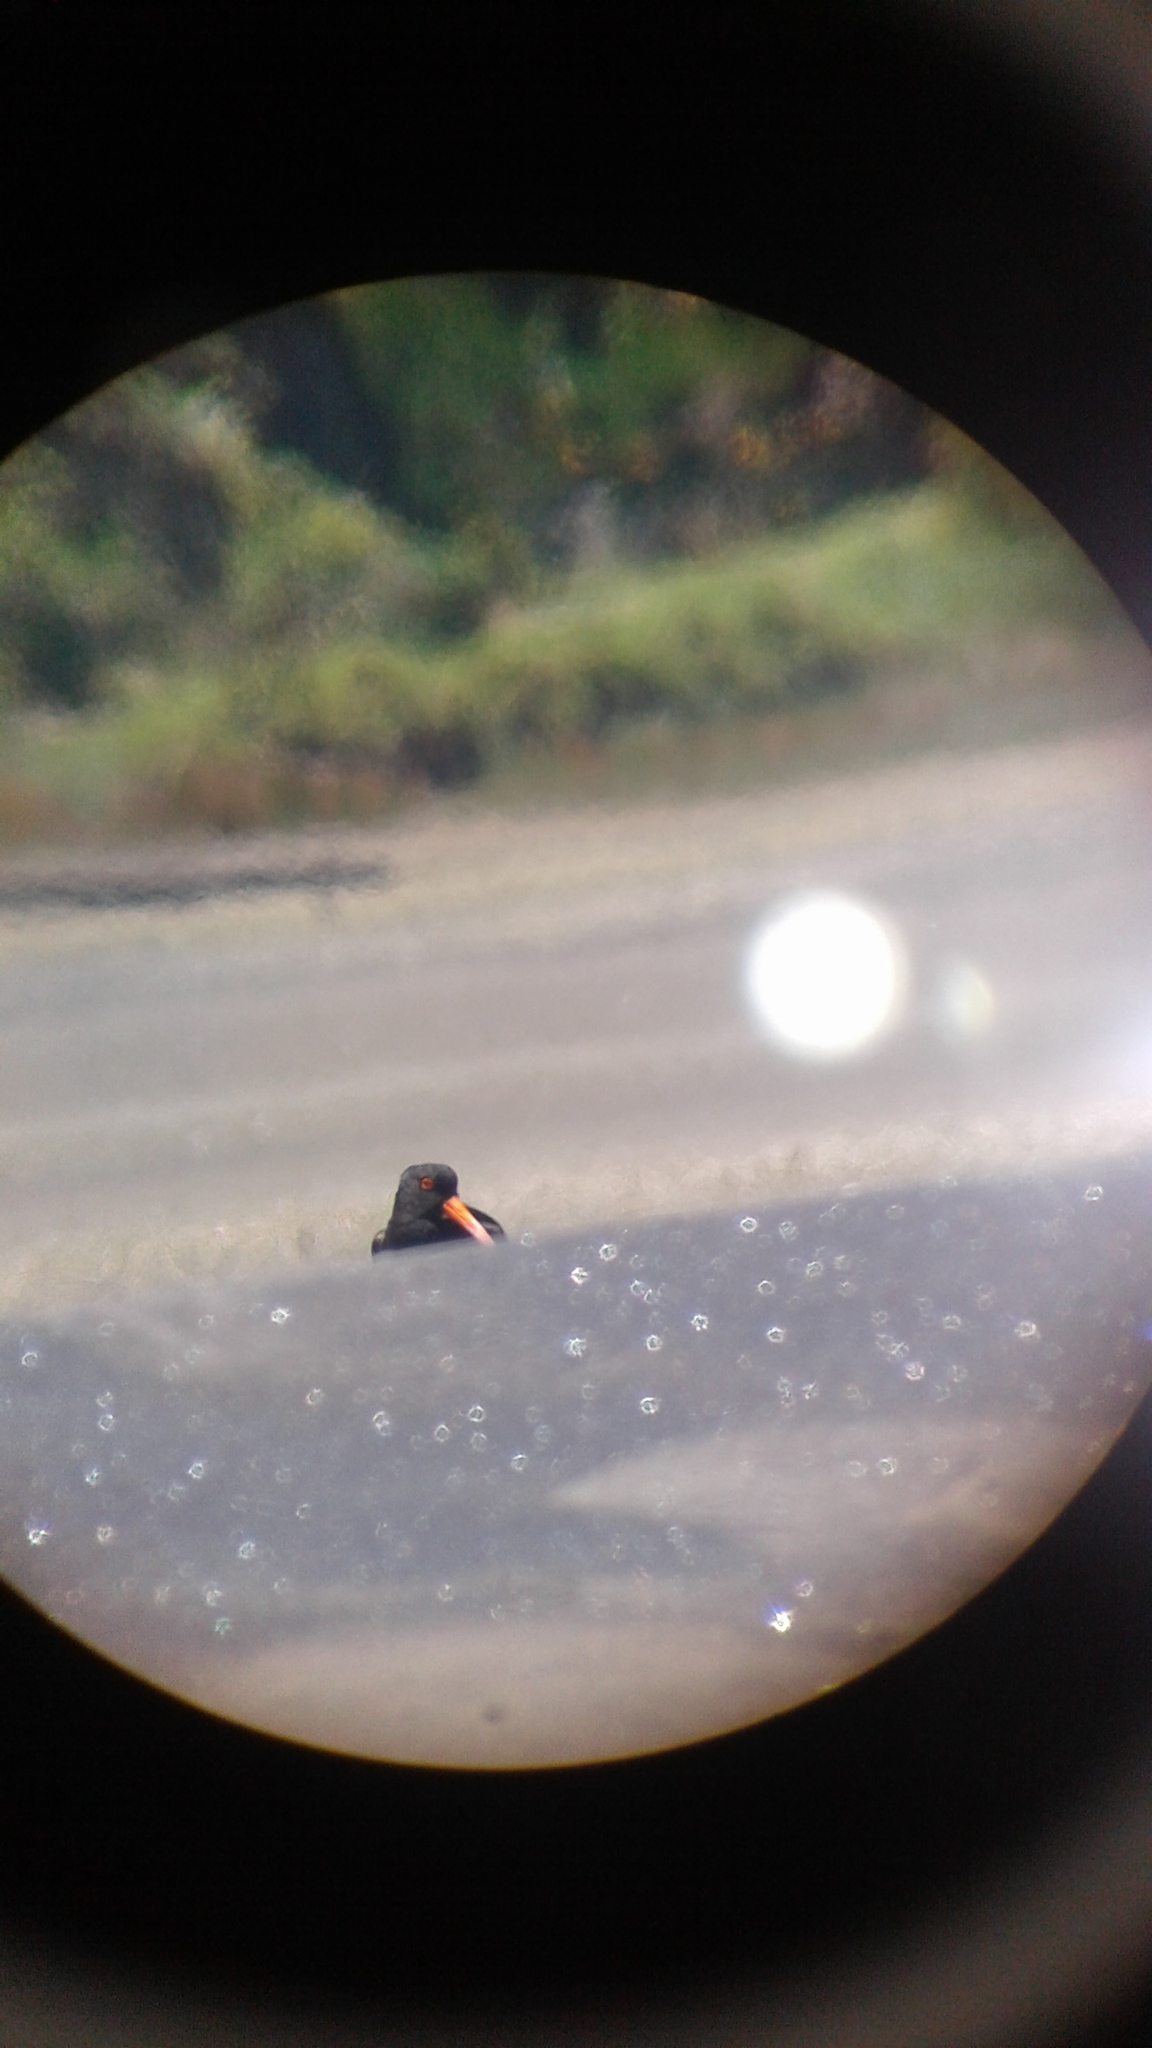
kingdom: Animalia
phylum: Chordata
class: Aves
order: Charadriiformes
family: Haematopodidae
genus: Haematopus
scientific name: Haematopus unicolor
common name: Variable oystercatcher
